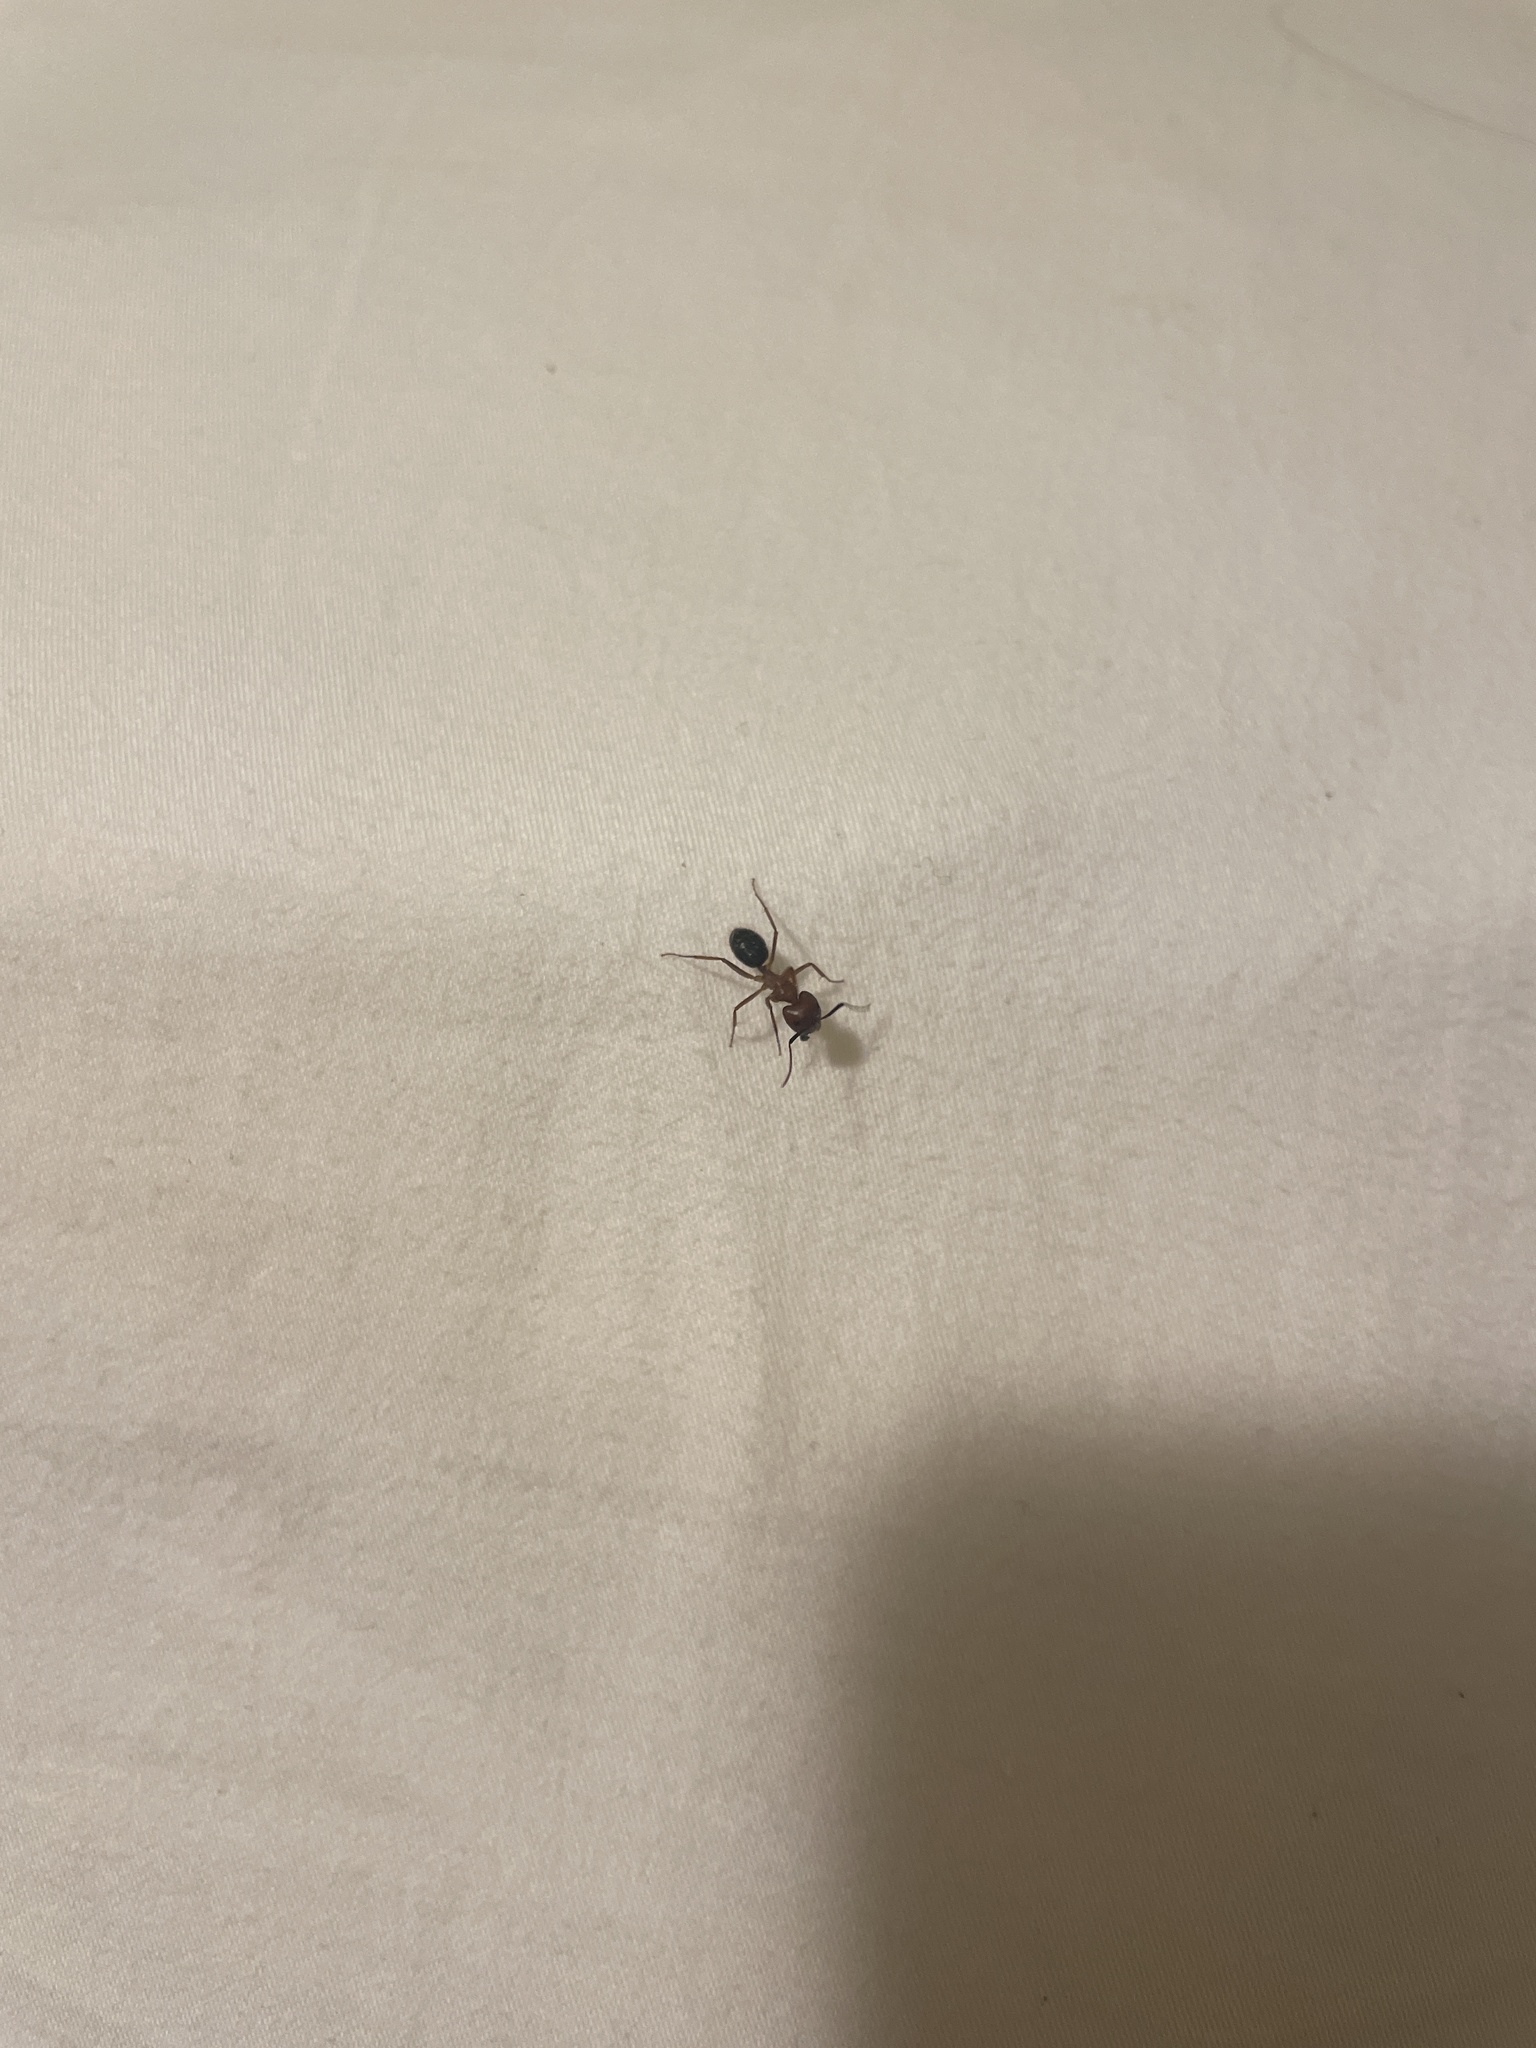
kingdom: Animalia
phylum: Arthropoda
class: Insecta
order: Hymenoptera
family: Formicidae
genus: Camponotus
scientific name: Camponotus floridanus
